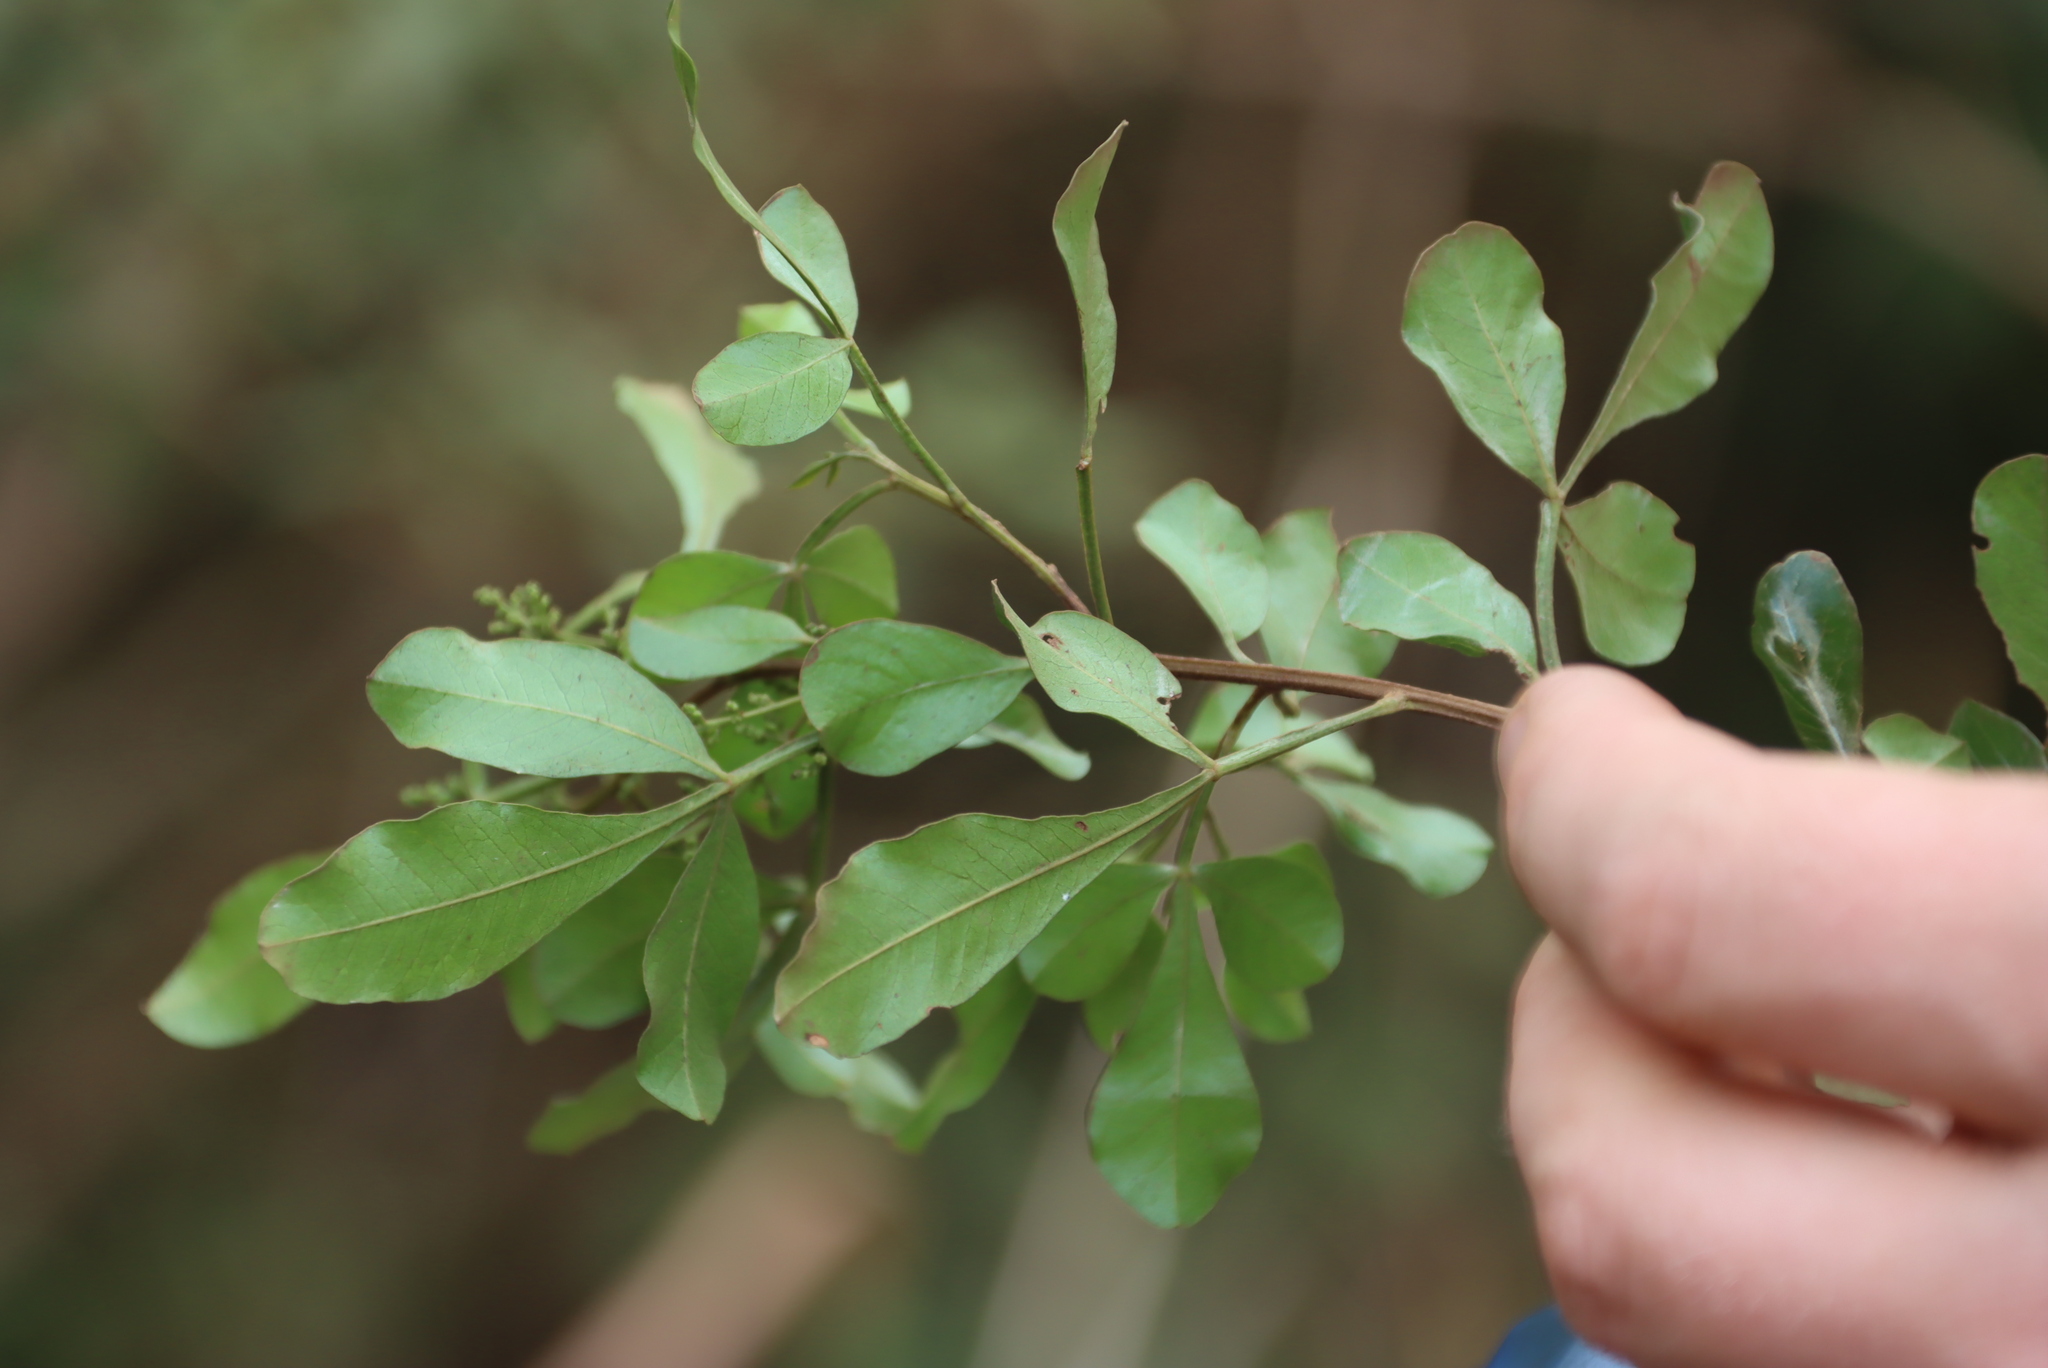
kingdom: Plantae
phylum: Tracheophyta
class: Magnoliopsida
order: Sapindales
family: Anacardiaceae
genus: Searsia
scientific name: Searsia pallens
